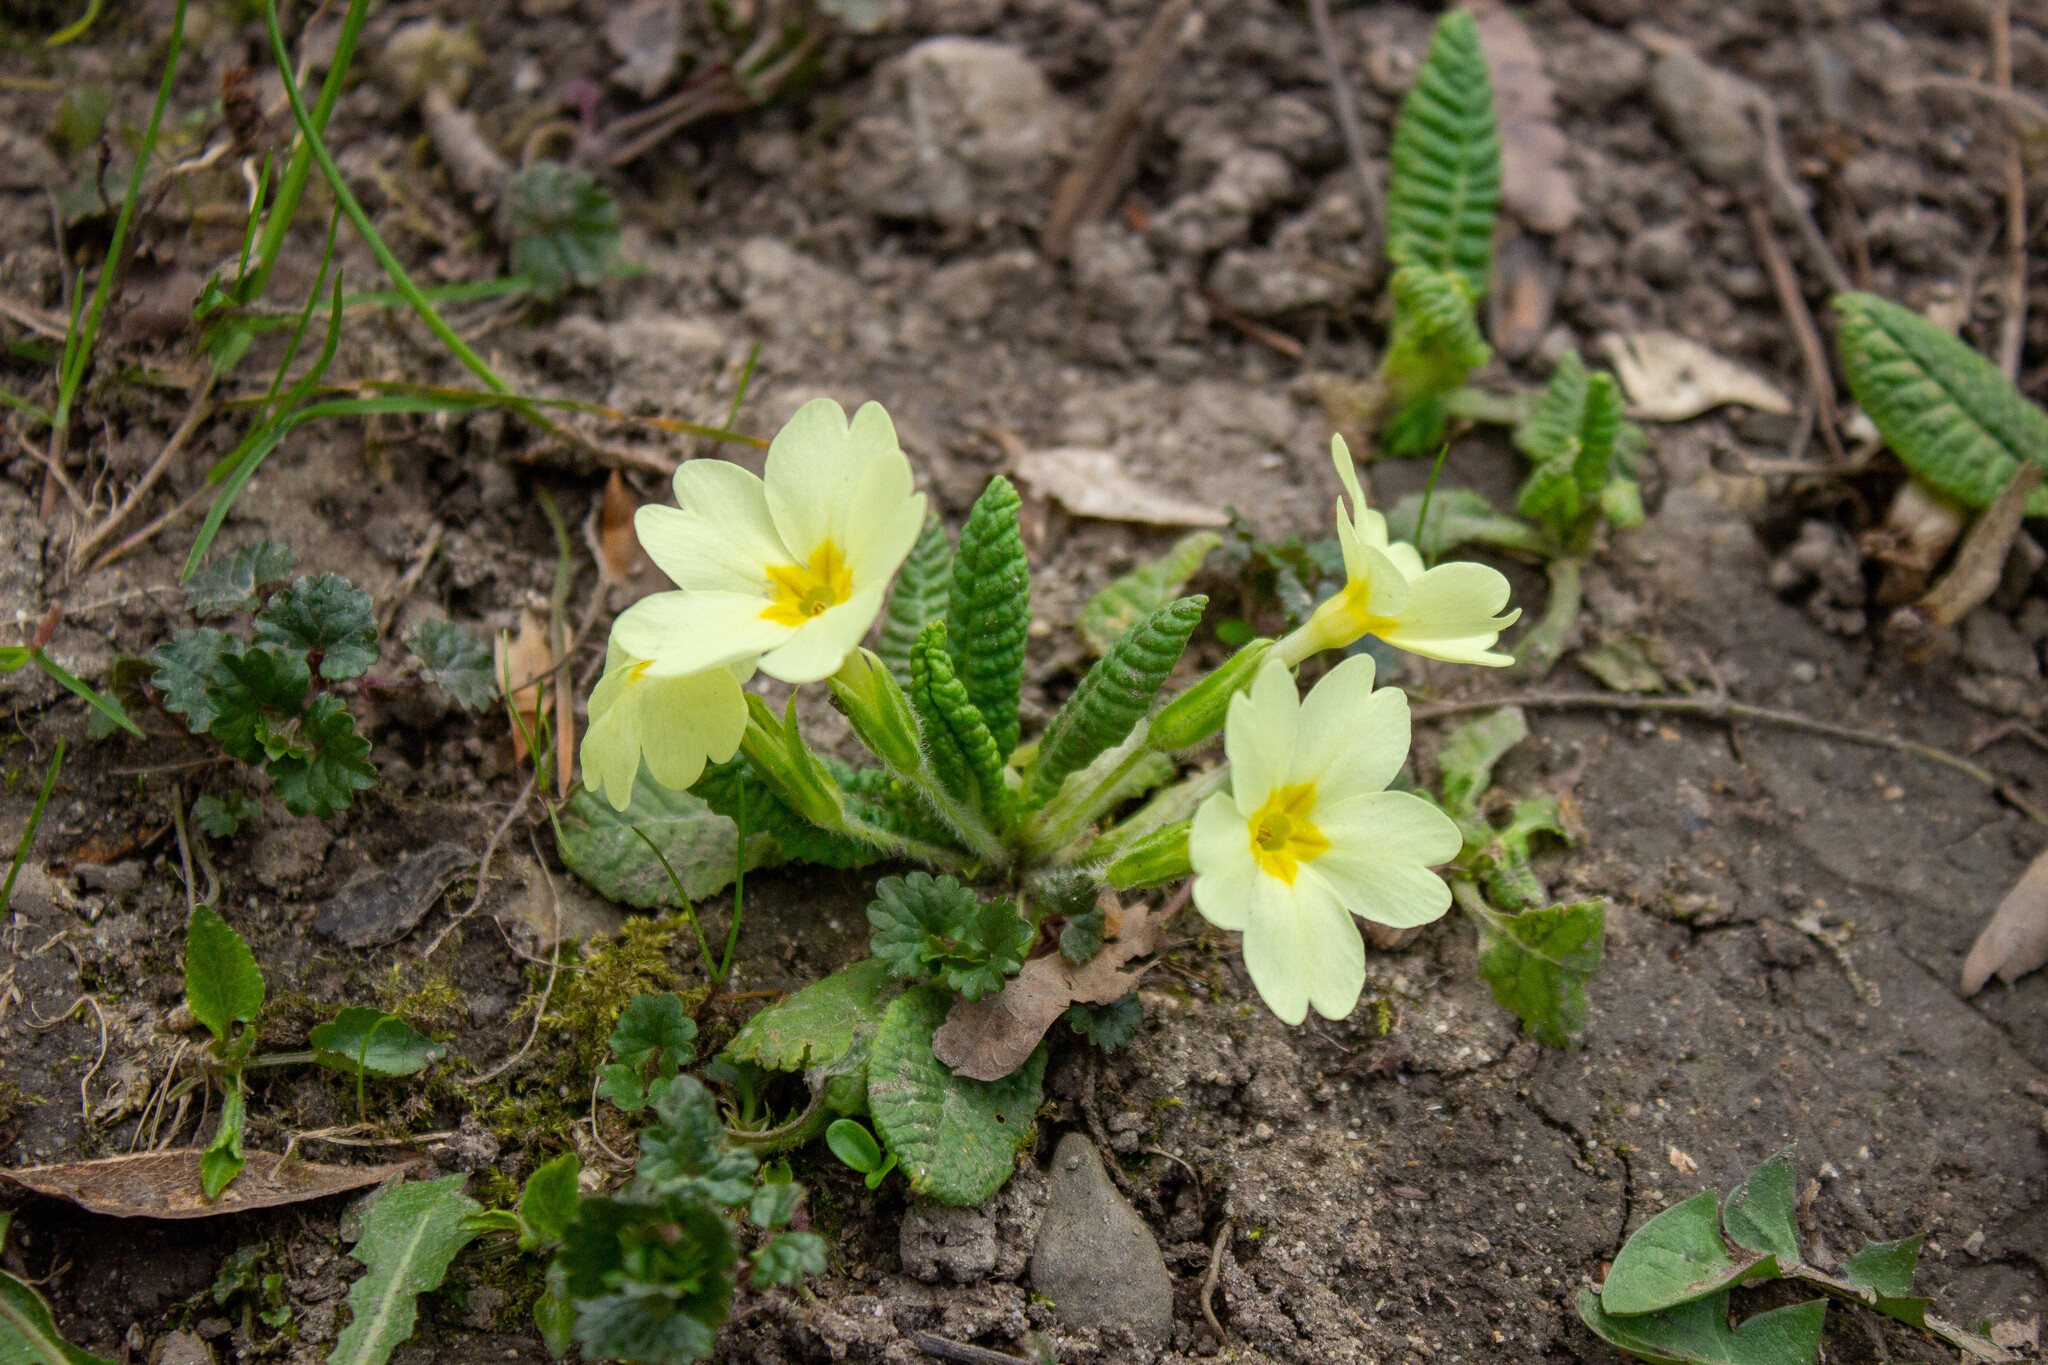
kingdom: Plantae
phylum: Tracheophyta
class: Magnoliopsida
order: Ericales
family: Primulaceae
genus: Primula
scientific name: Primula vulgaris
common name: Primrose
